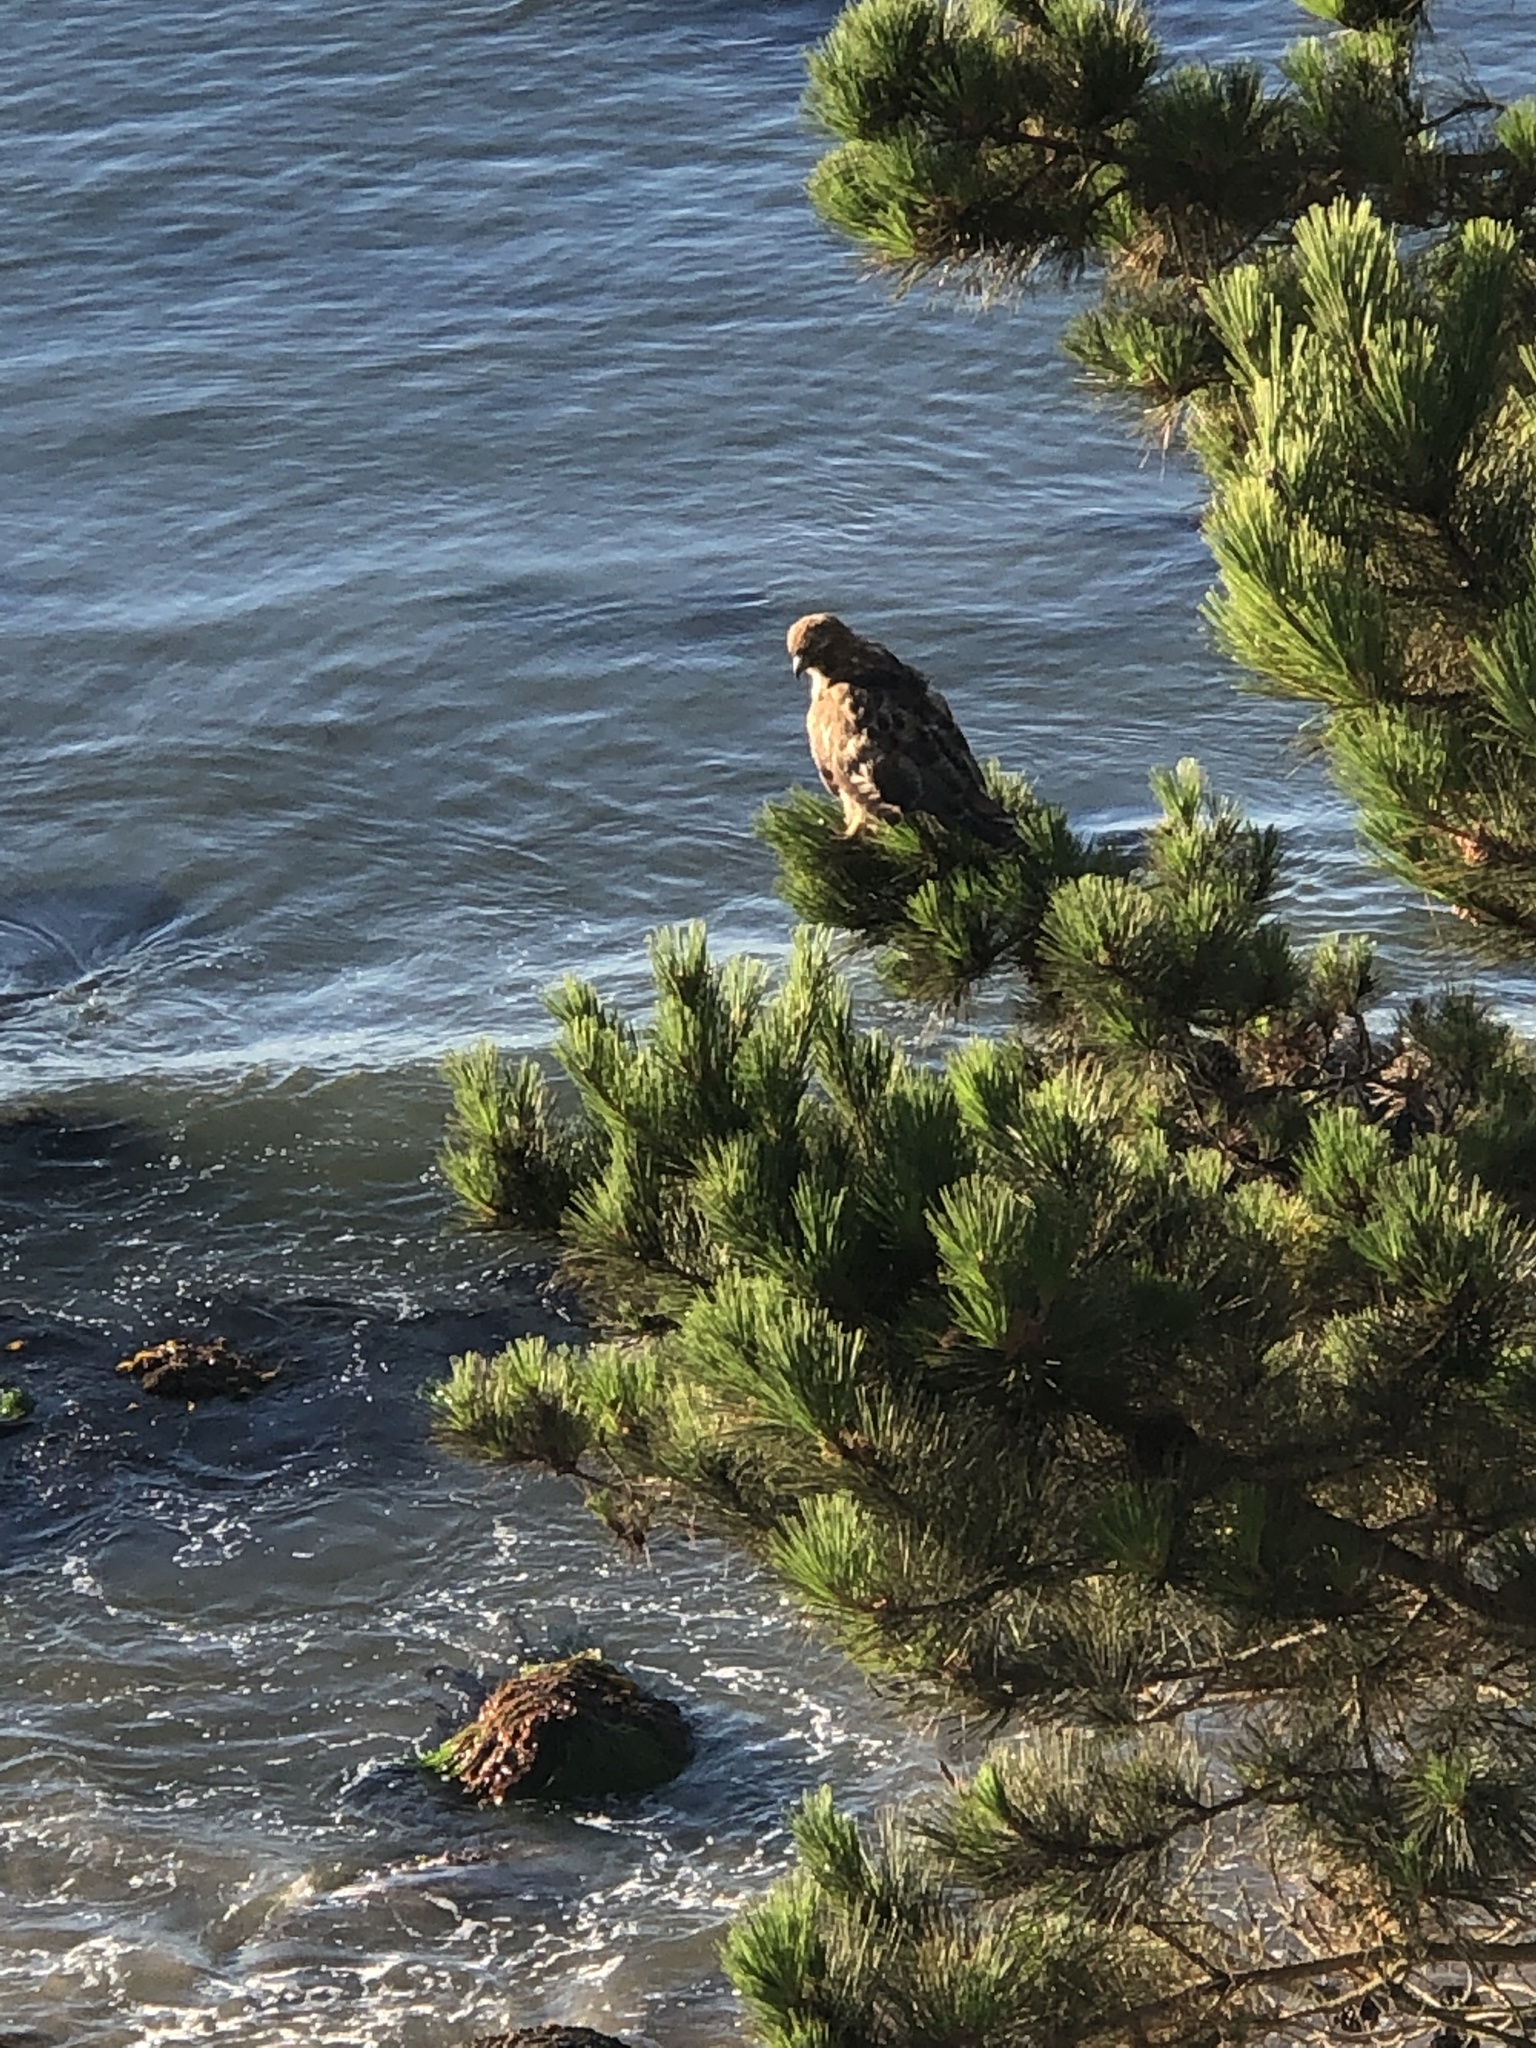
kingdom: Animalia
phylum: Chordata
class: Aves
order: Accipitriformes
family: Accipitridae
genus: Buteo
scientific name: Buteo jamaicensis
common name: Red-tailed hawk
